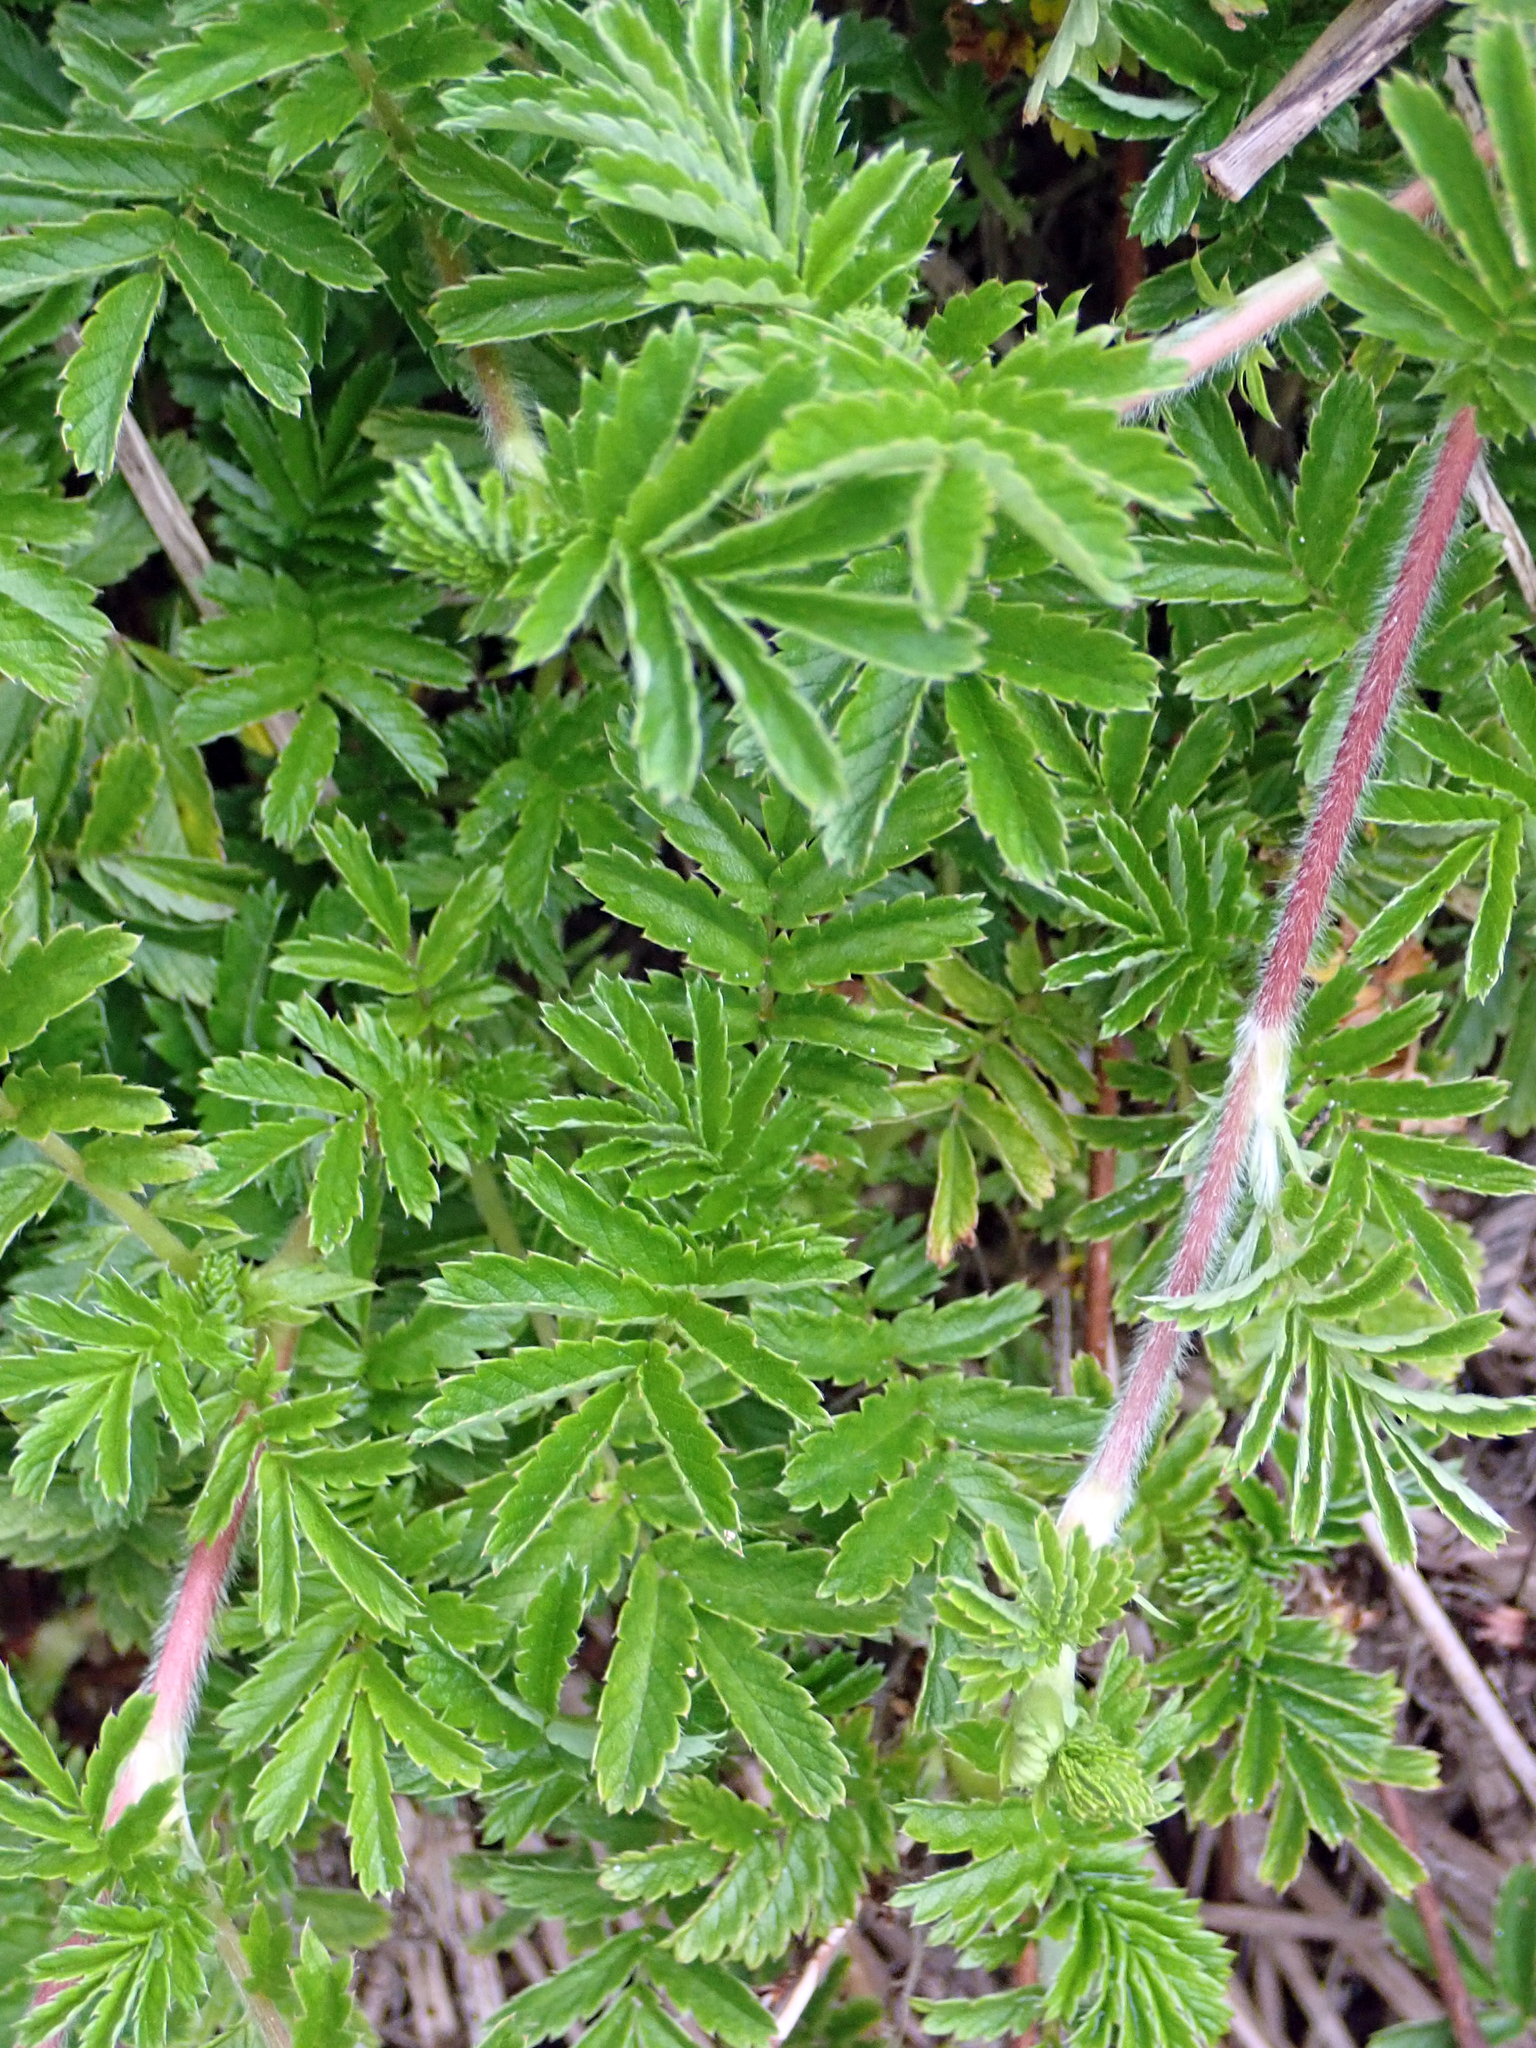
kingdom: Plantae
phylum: Tracheophyta
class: Magnoliopsida
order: Rosales
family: Rosaceae
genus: Acaena
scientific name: Acaena novae-zelandiae
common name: Pirri-pirri-bur
